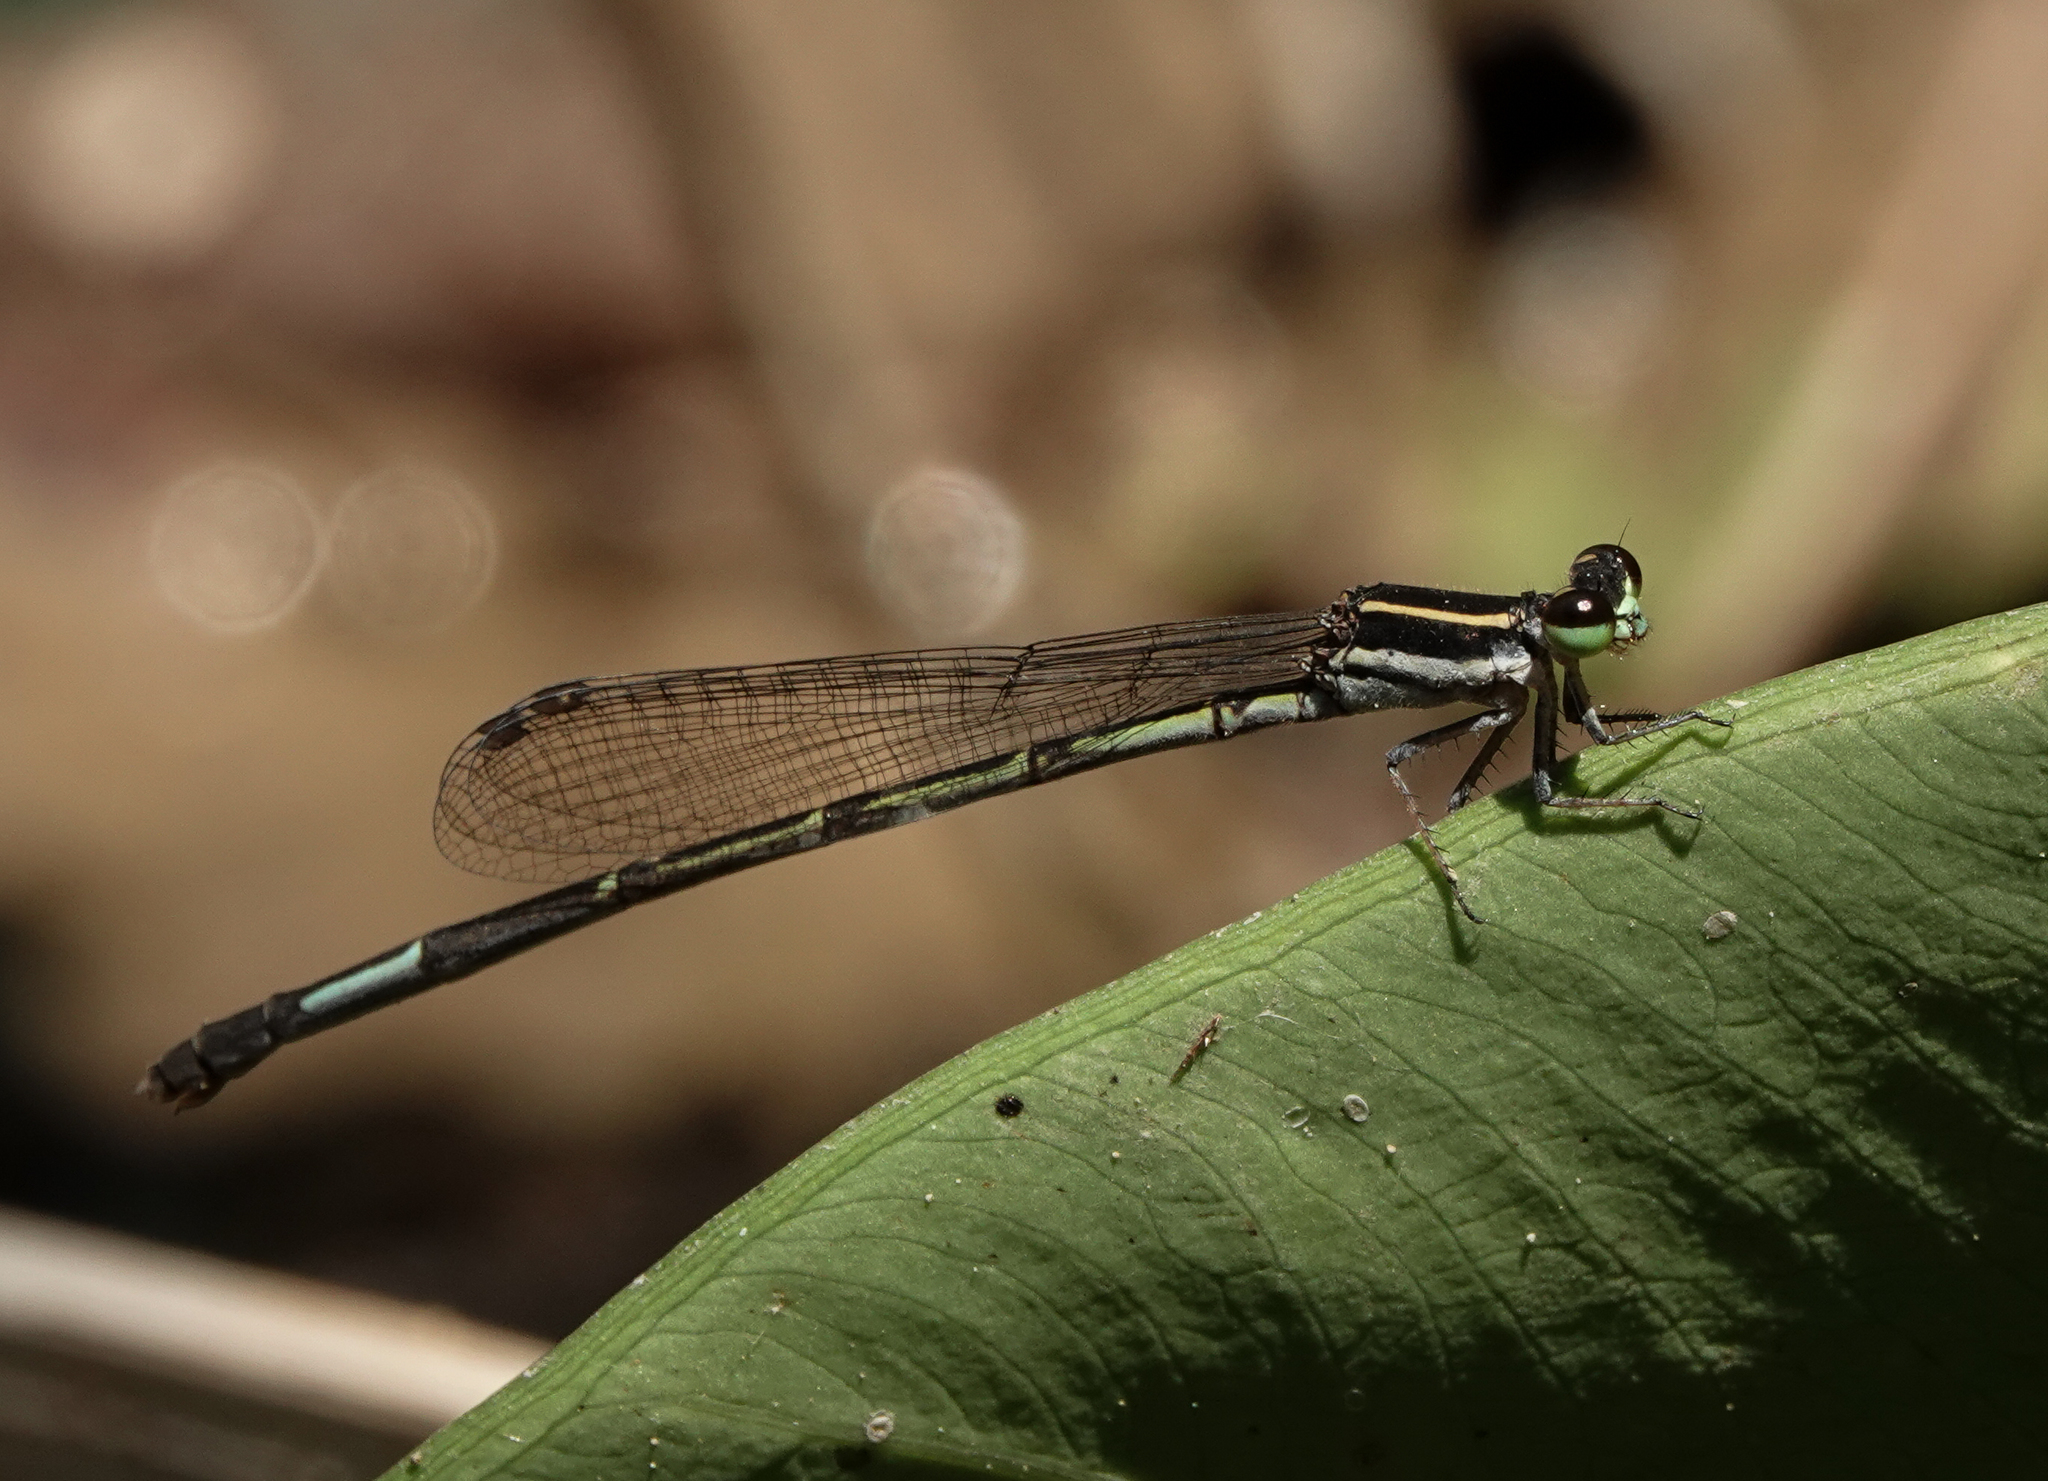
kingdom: Animalia
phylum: Arthropoda
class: Insecta
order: Odonata
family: Coenagrionidae
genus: Argiocnemis
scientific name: Argiocnemis rubescens
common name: Red-tipped shadefly
